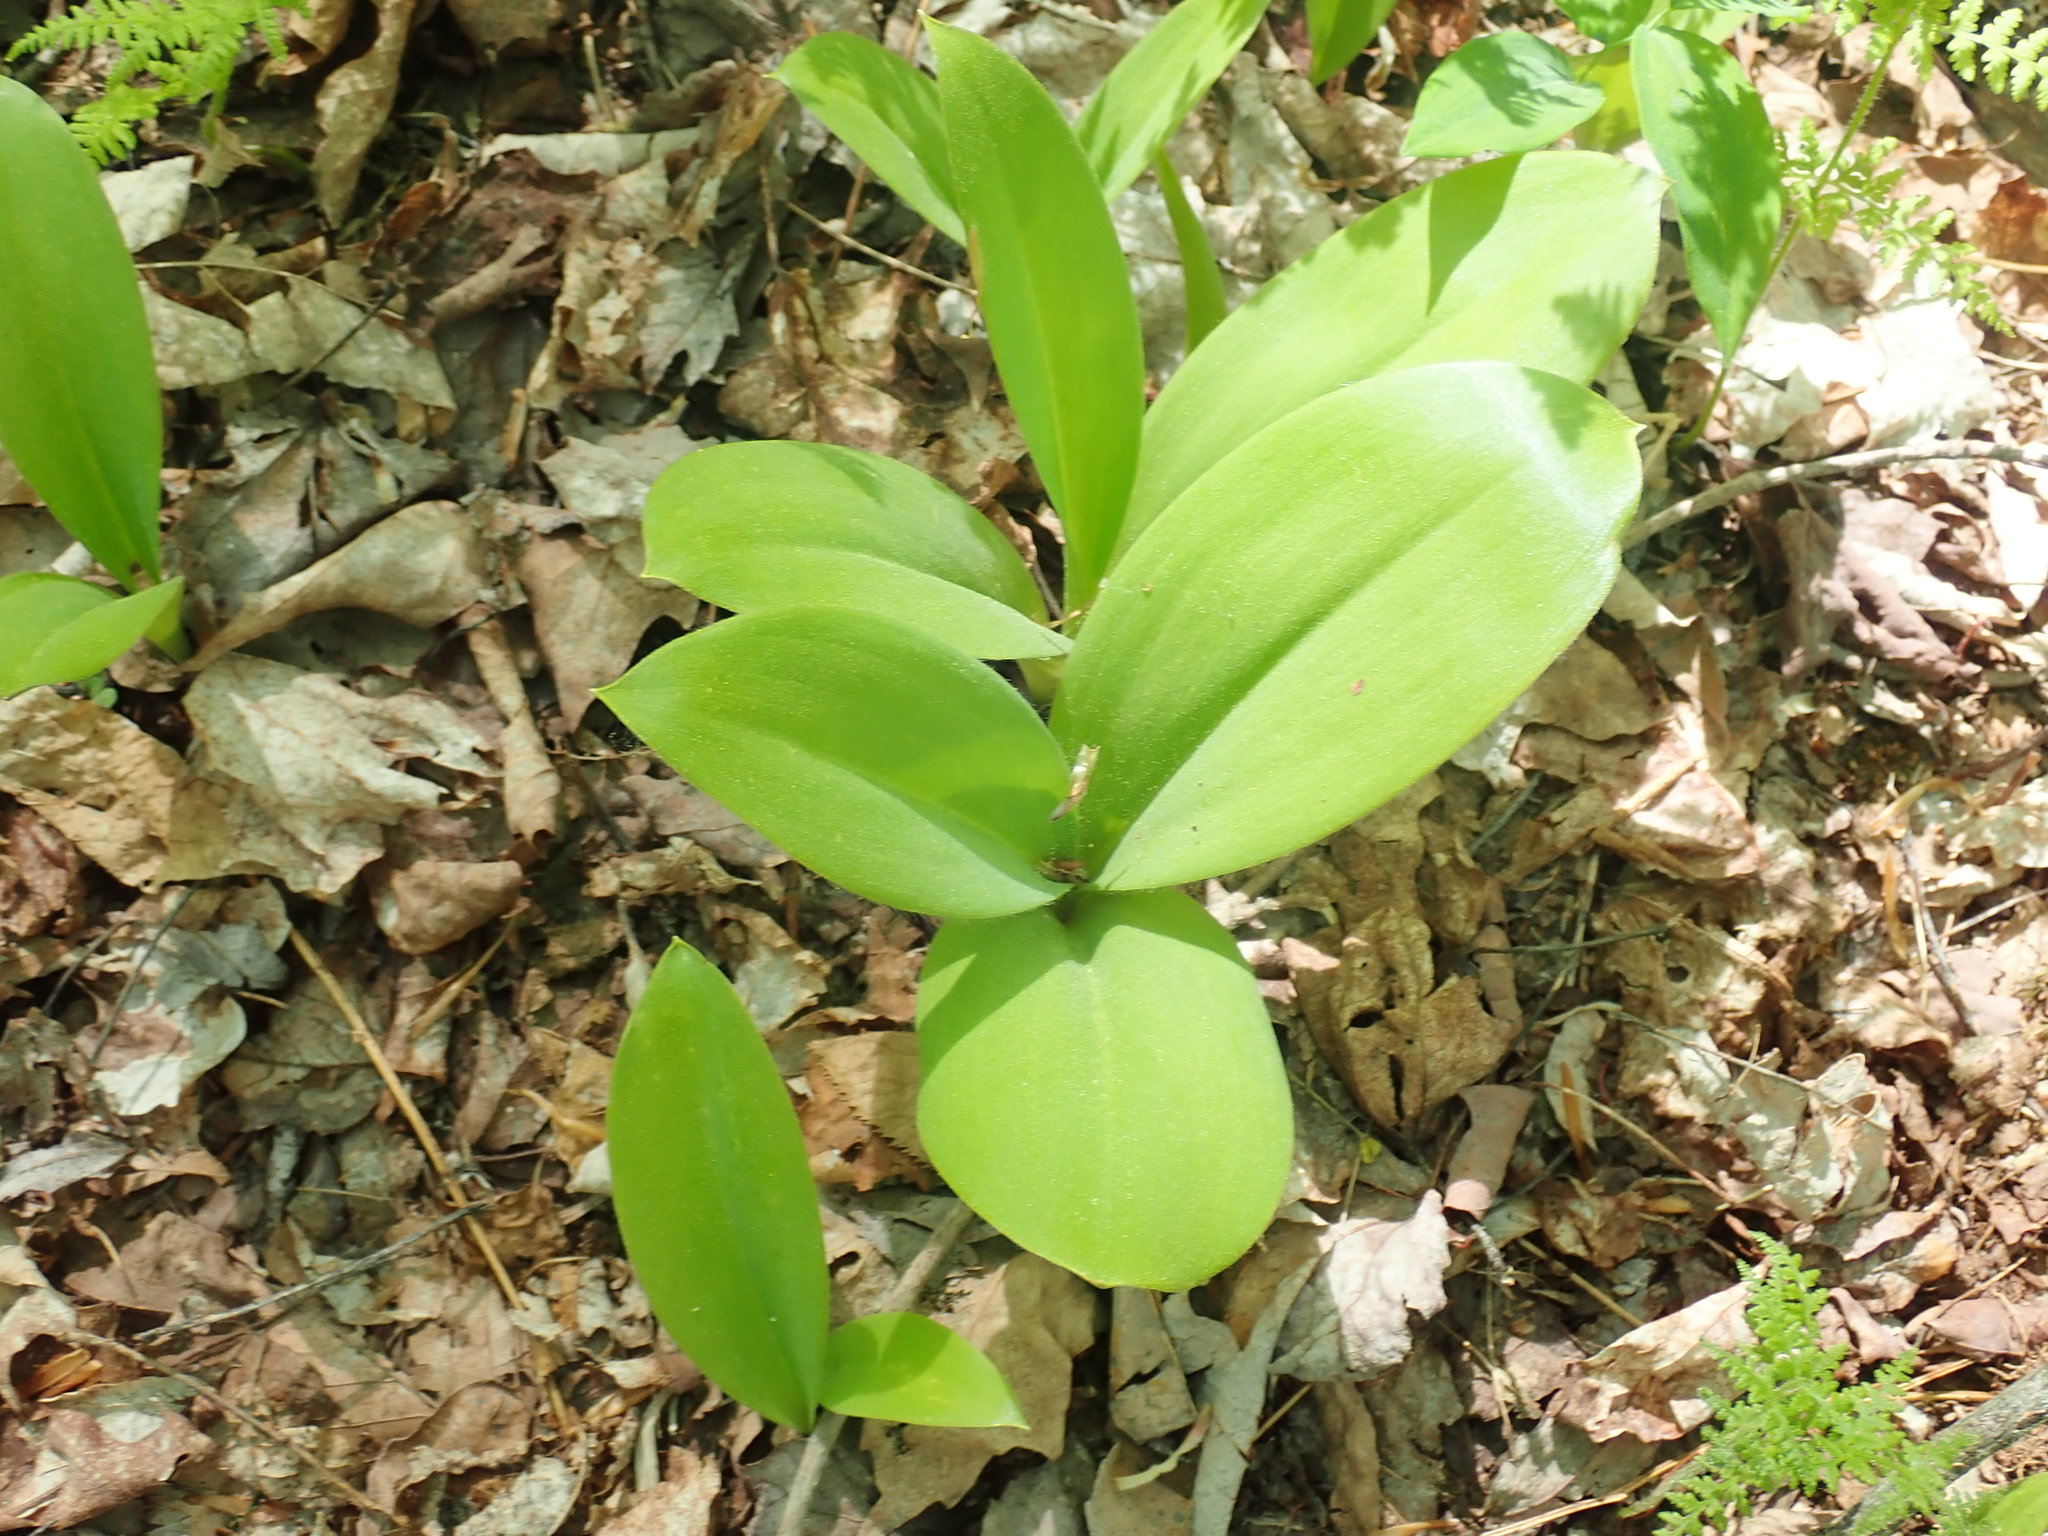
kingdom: Plantae
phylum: Tracheophyta
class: Liliopsida
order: Liliales
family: Liliaceae
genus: Clintonia
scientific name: Clintonia borealis
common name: Yellow clintonia
